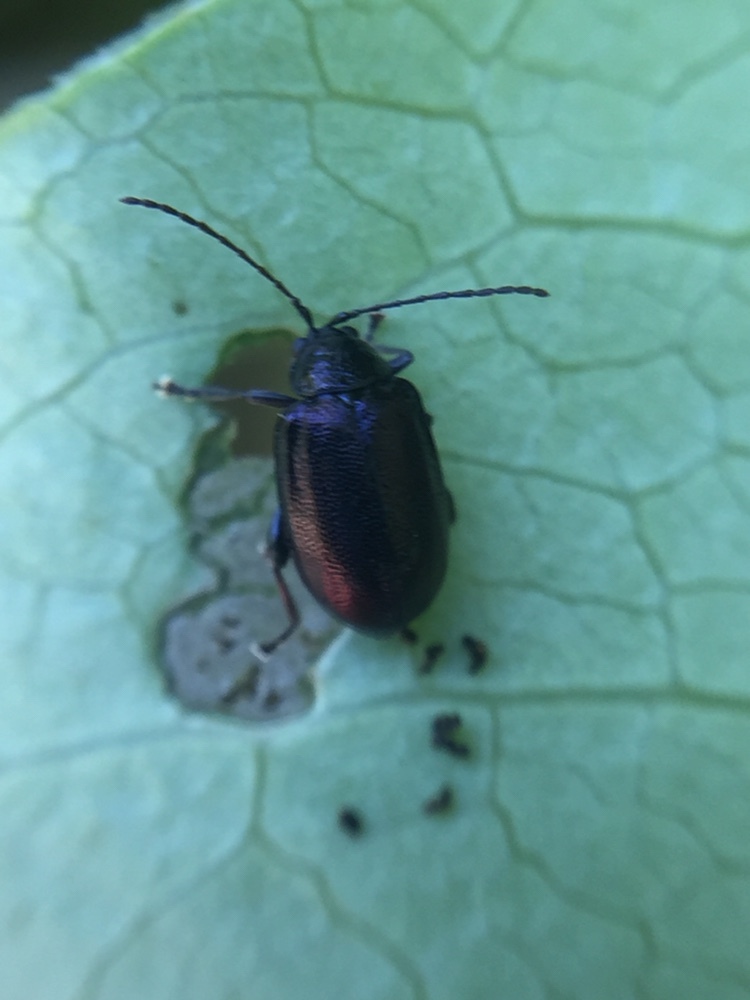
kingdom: Animalia
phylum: Arthropoda
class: Insecta
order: Coleoptera
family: Chrysomelidae
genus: Pleuraltica
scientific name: Pleuraltica cyanea
